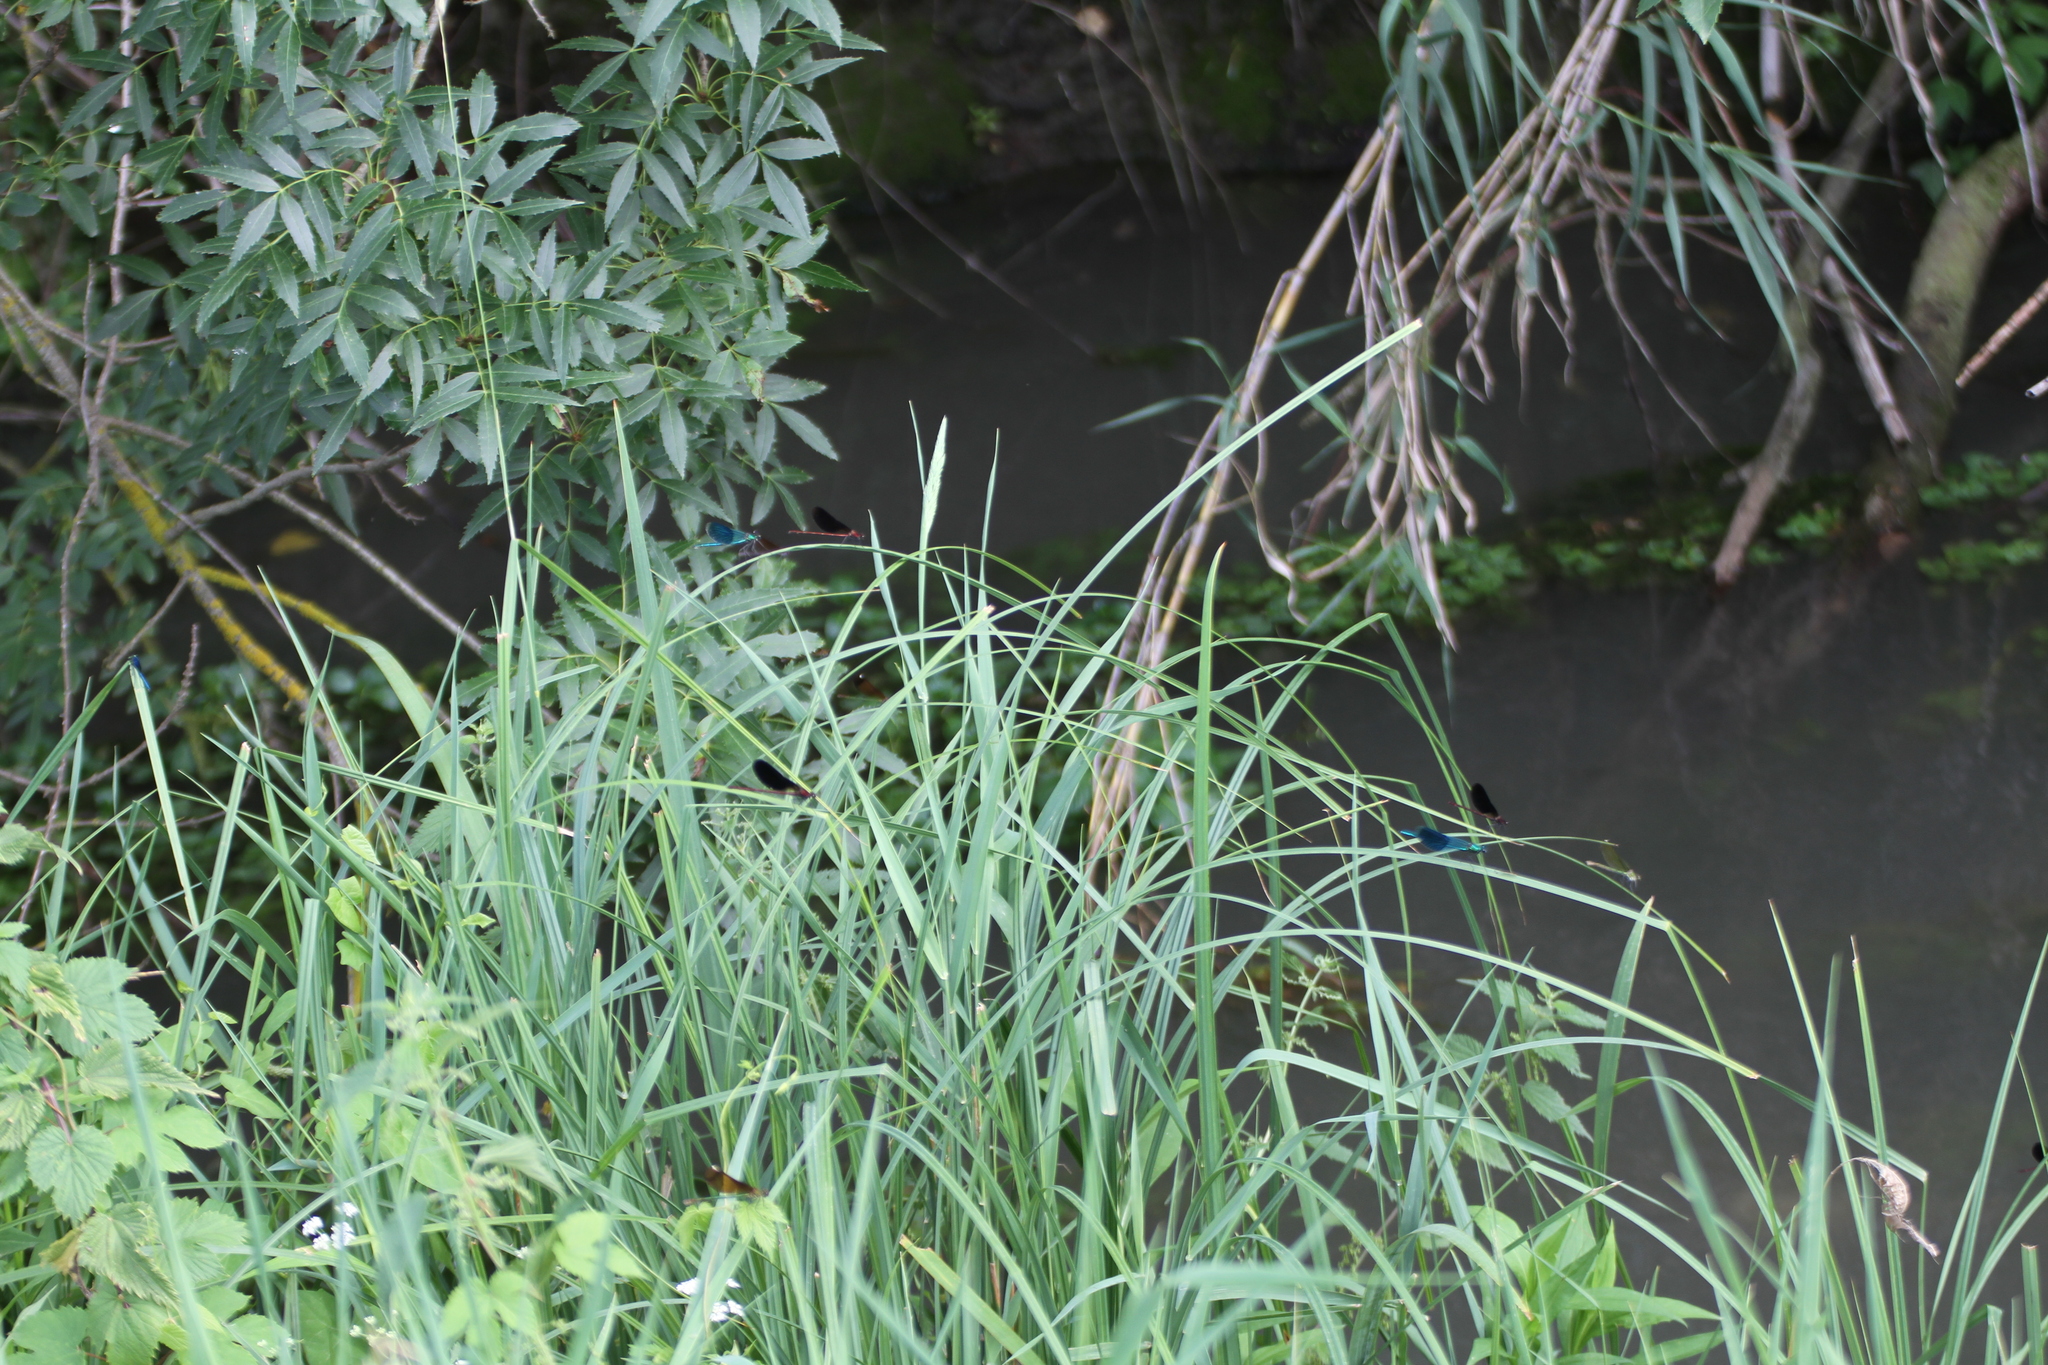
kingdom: Animalia
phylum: Arthropoda
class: Insecta
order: Odonata
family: Calopterygidae
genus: Calopteryx
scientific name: Calopteryx haemorrhoidalis
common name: Copper demoiselle
